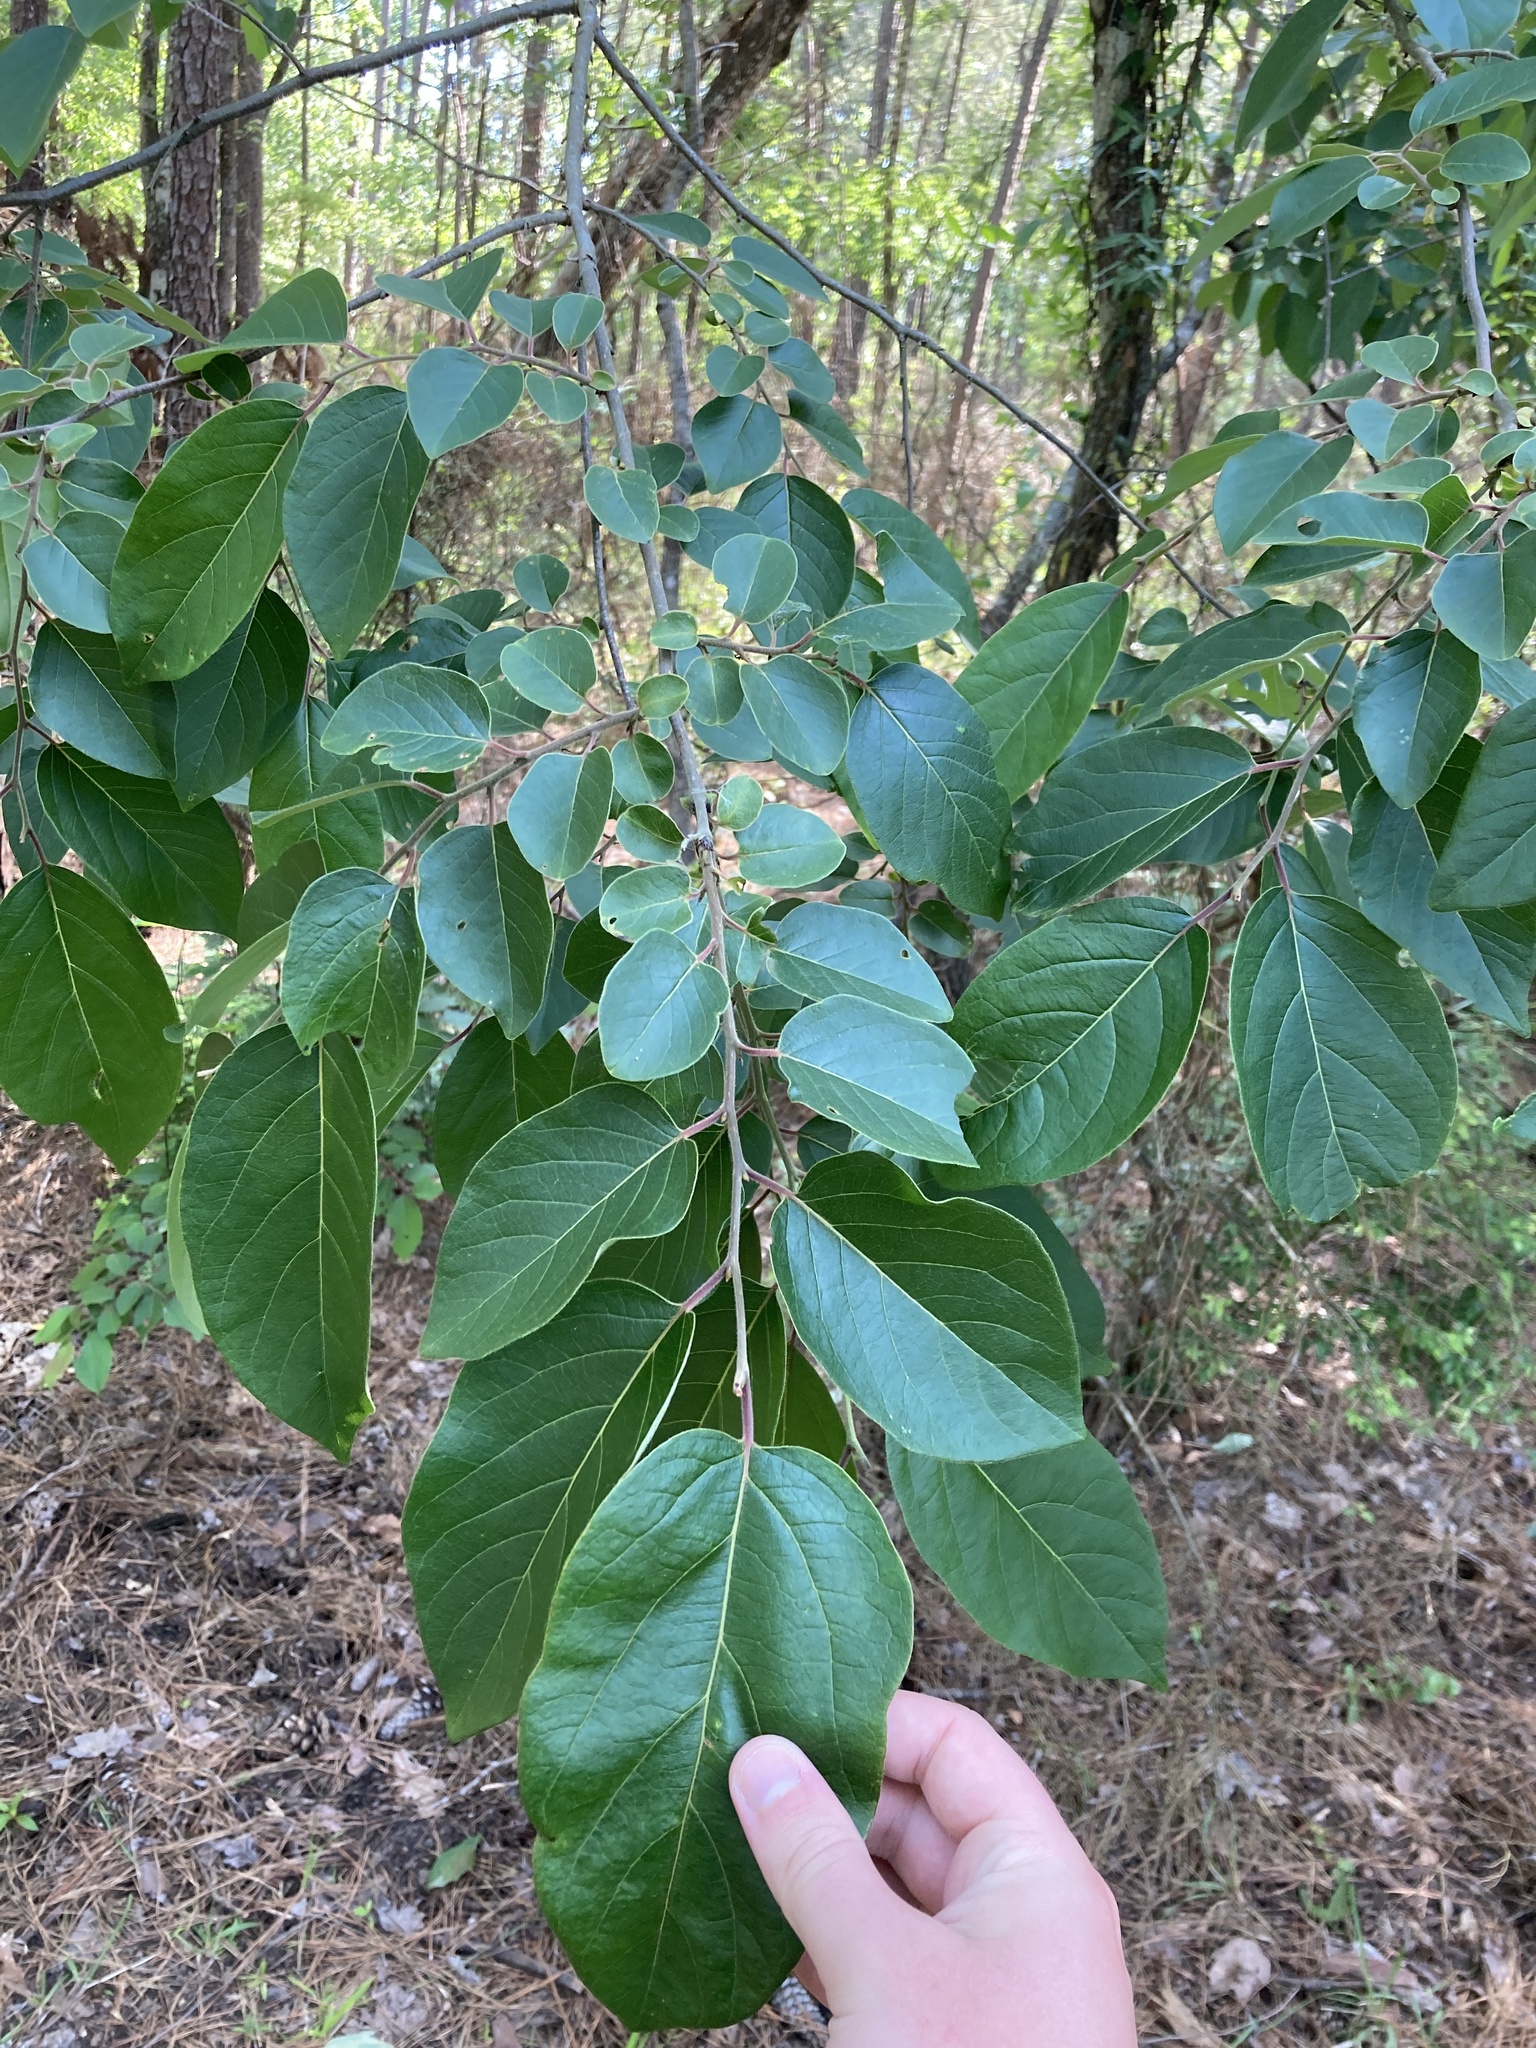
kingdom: Plantae
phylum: Tracheophyta
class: Magnoliopsida
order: Ericales
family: Ebenaceae
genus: Diospyros
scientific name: Diospyros virginiana
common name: Persimmon
